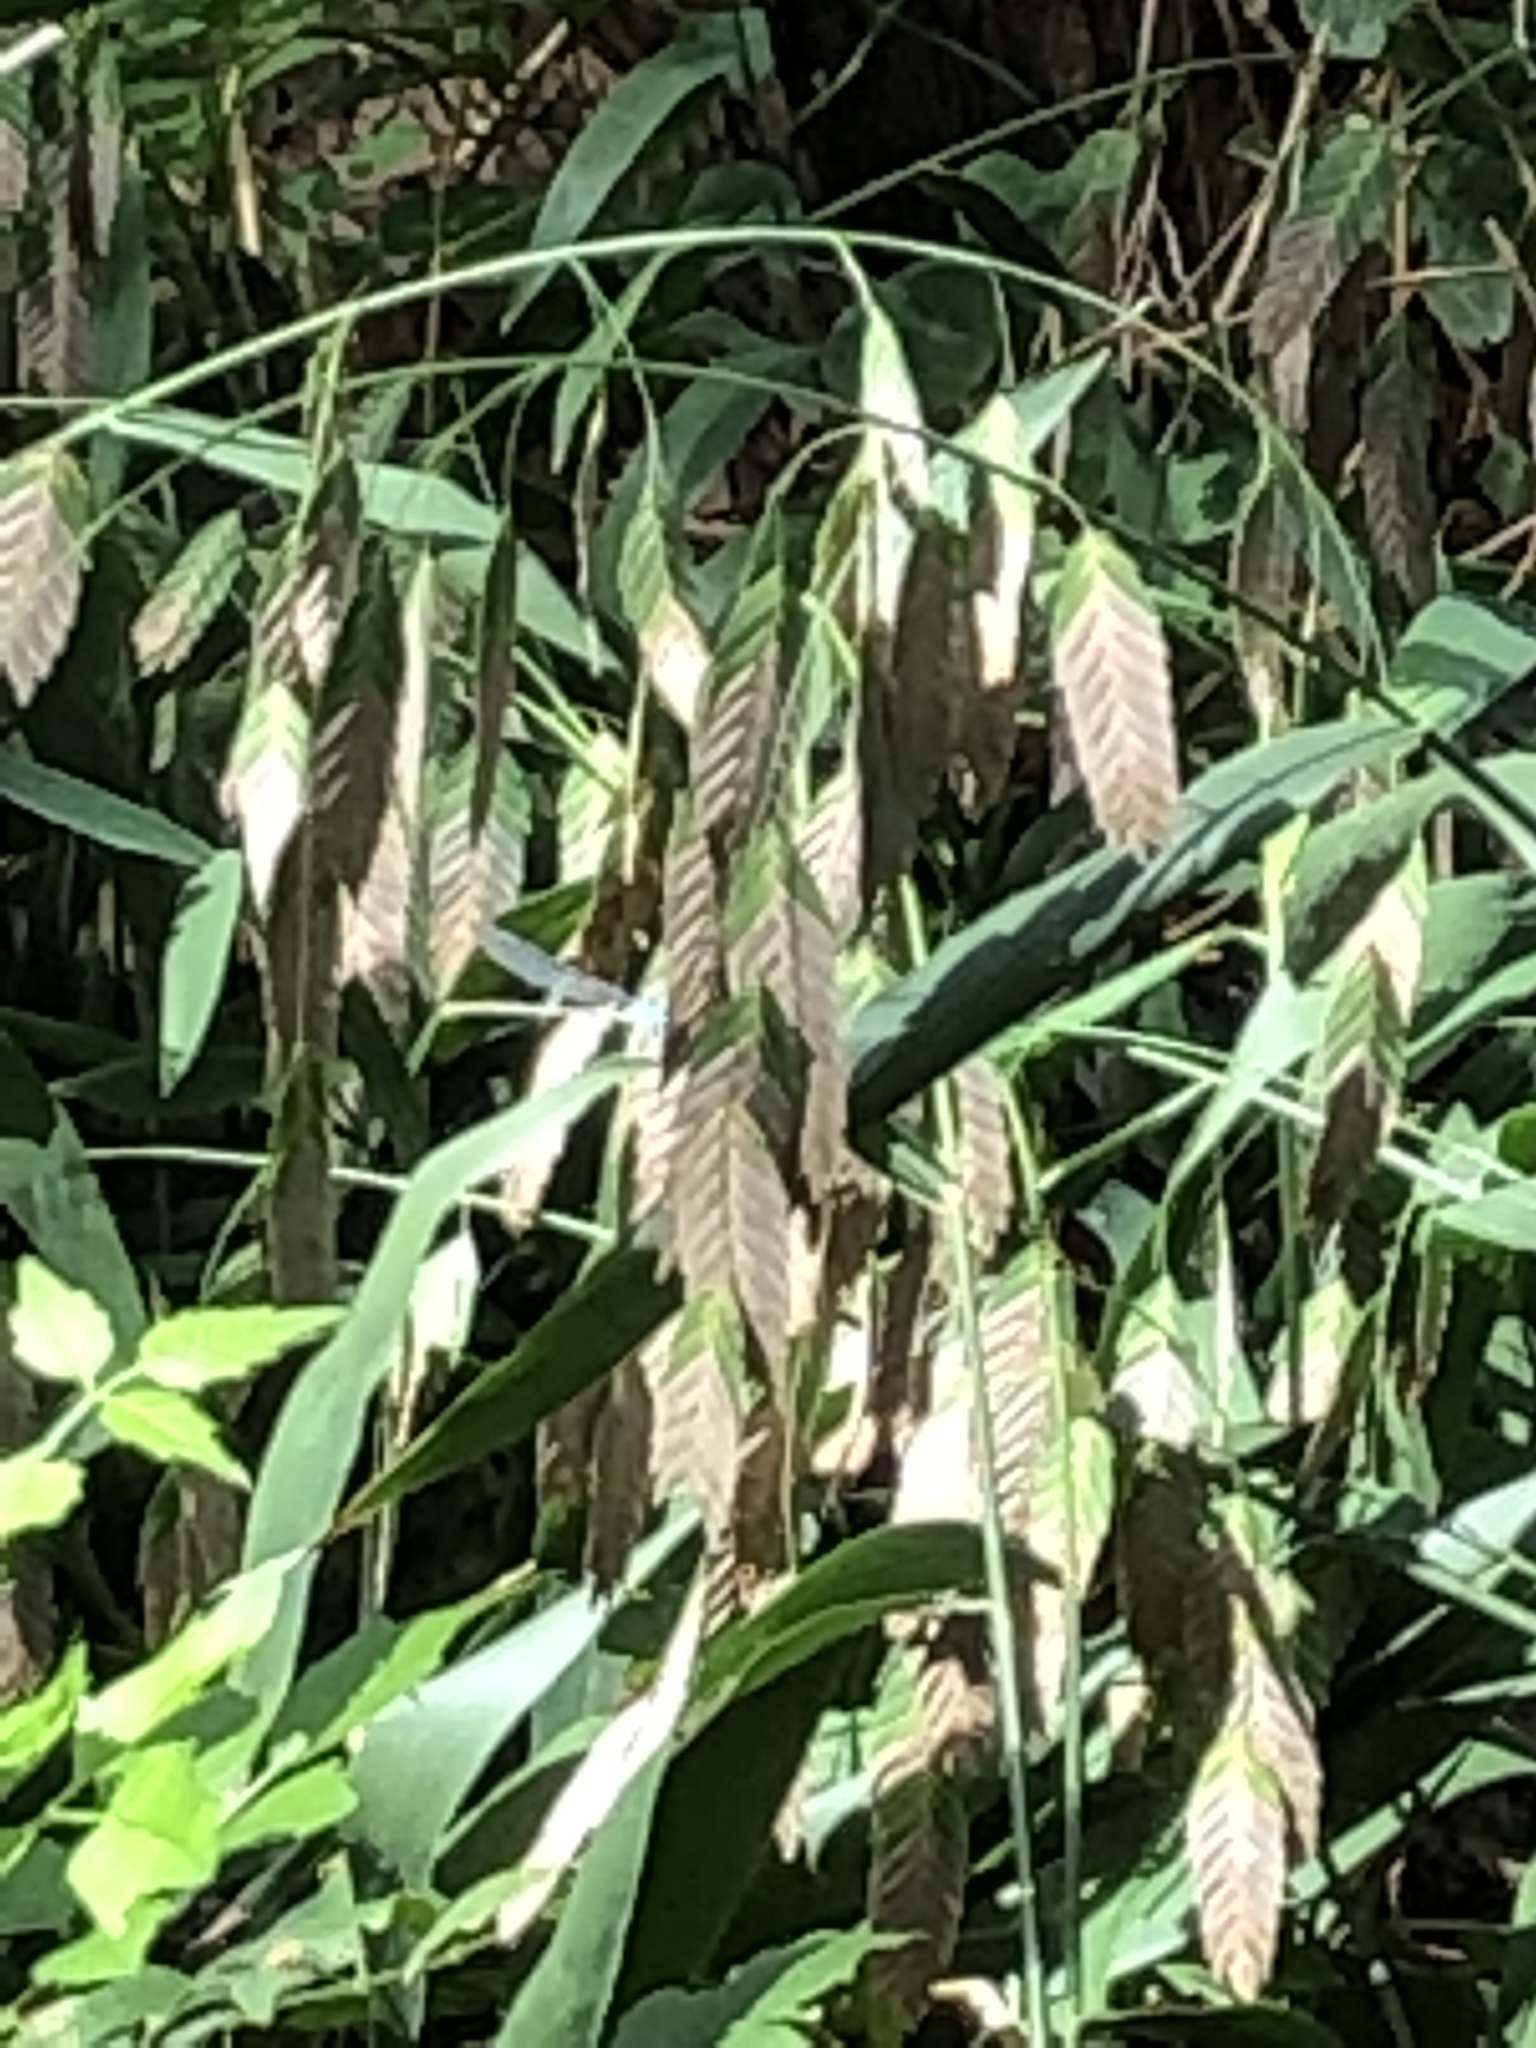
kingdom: Plantae
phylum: Tracheophyta
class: Liliopsida
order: Poales
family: Poaceae
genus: Chasmanthium
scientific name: Chasmanthium latifolium
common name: Broad-leaved chasmanthium
